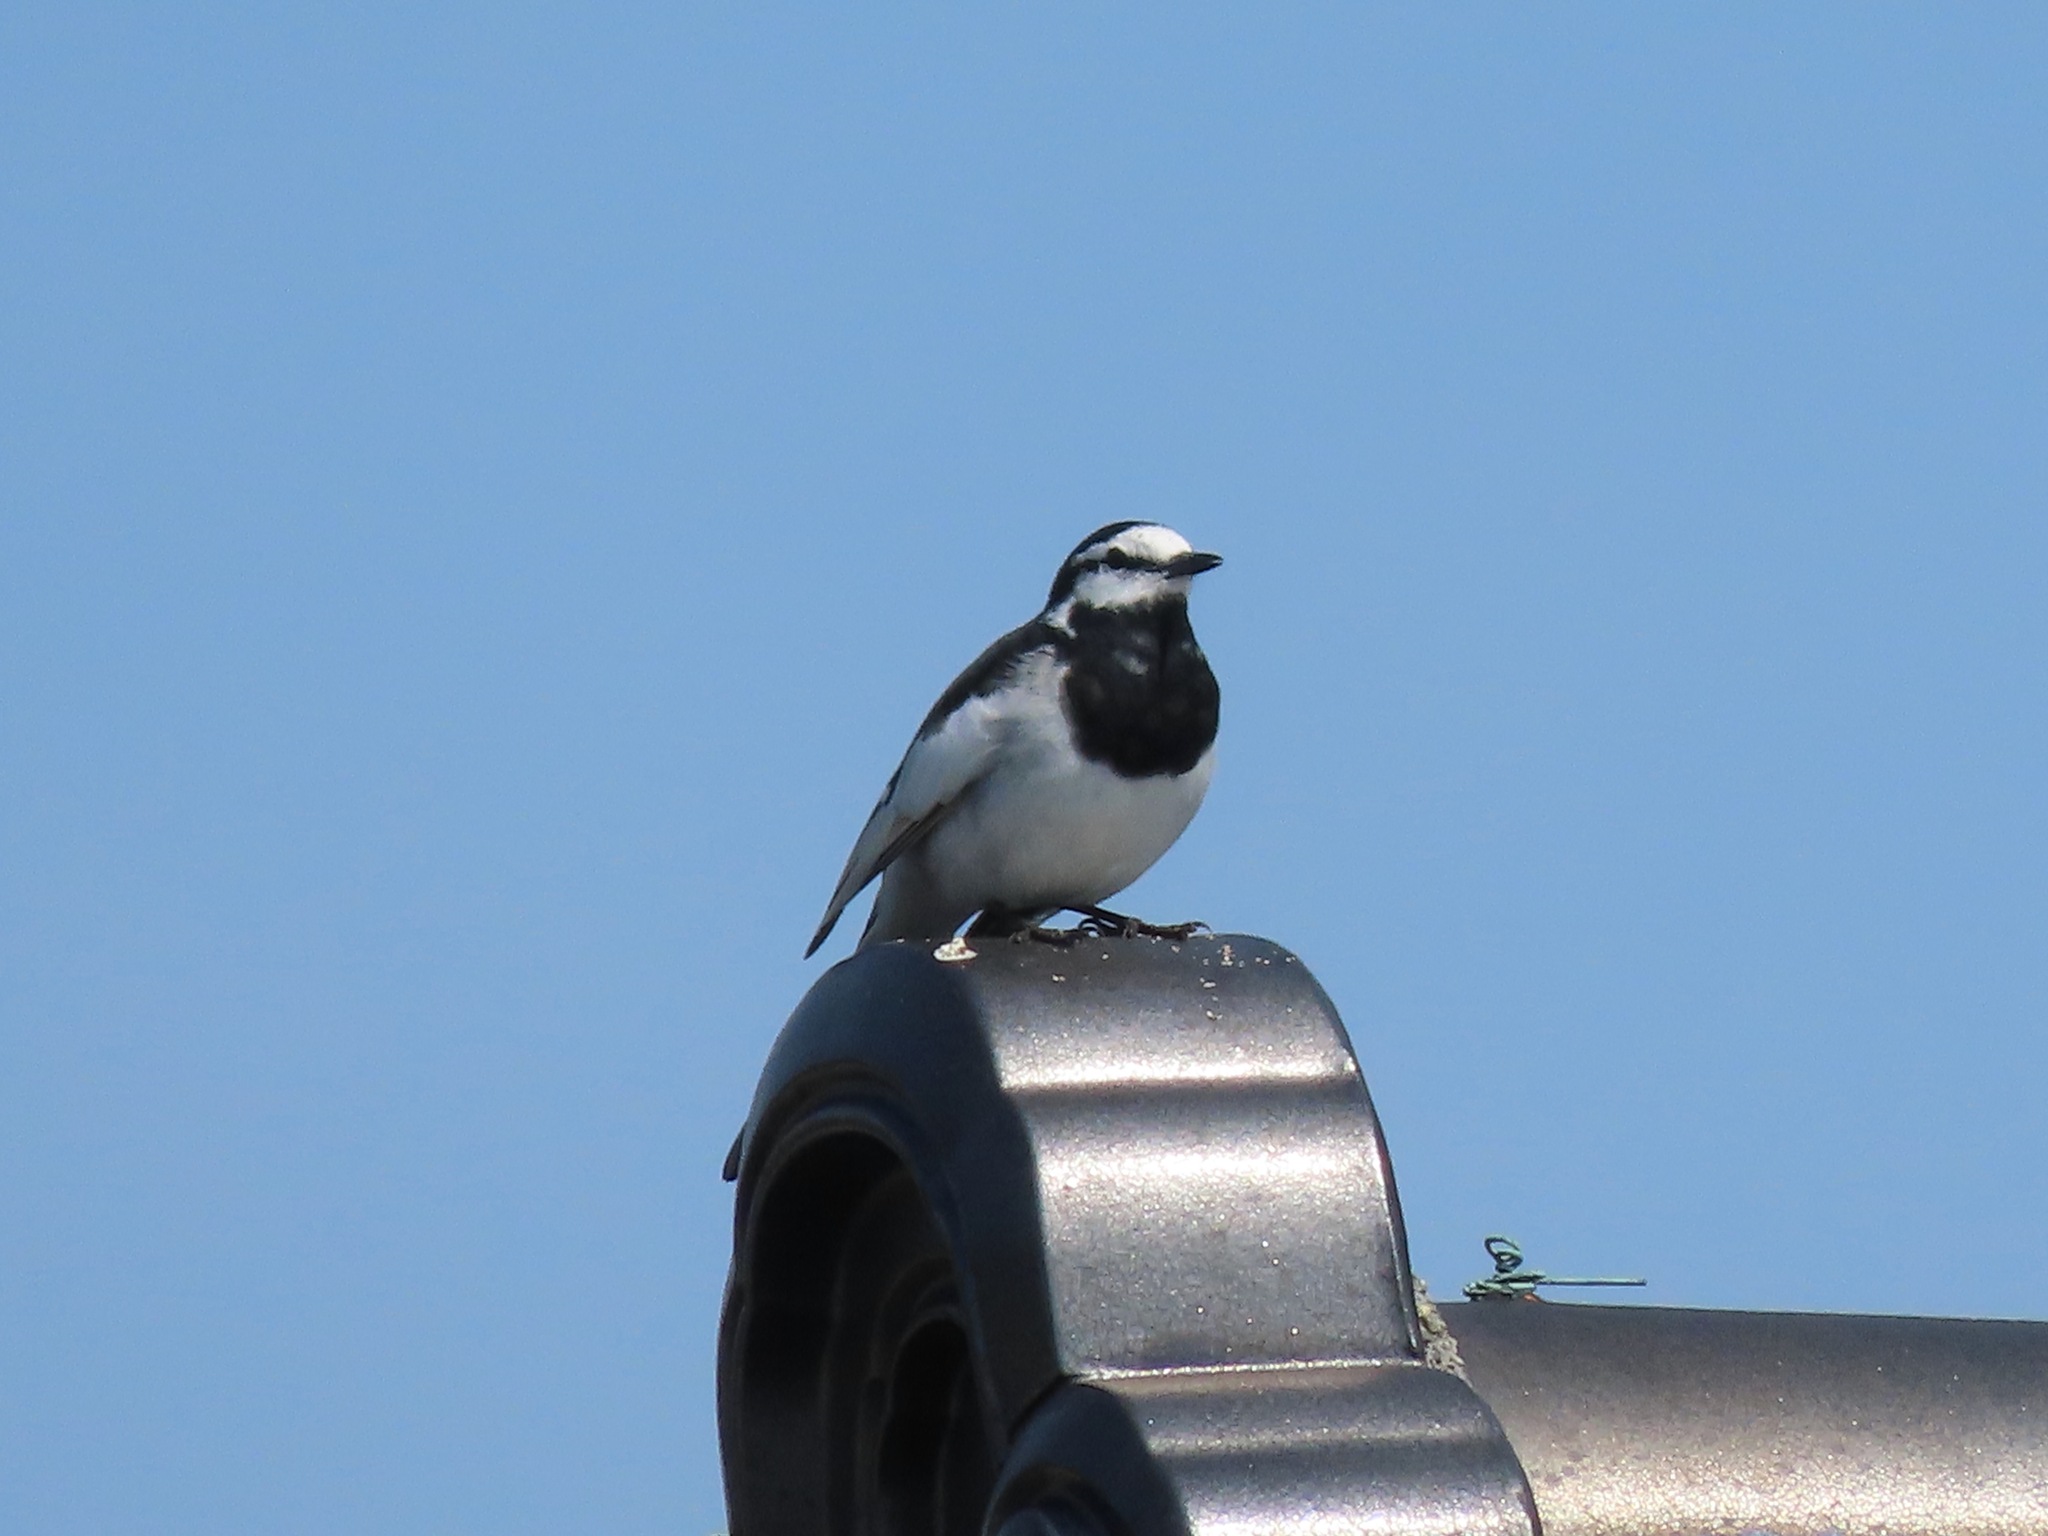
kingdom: Animalia
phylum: Chordata
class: Aves
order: Passeriformes
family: Motacillidae
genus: Motacilla
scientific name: Motacilla alba
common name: White wagtail
